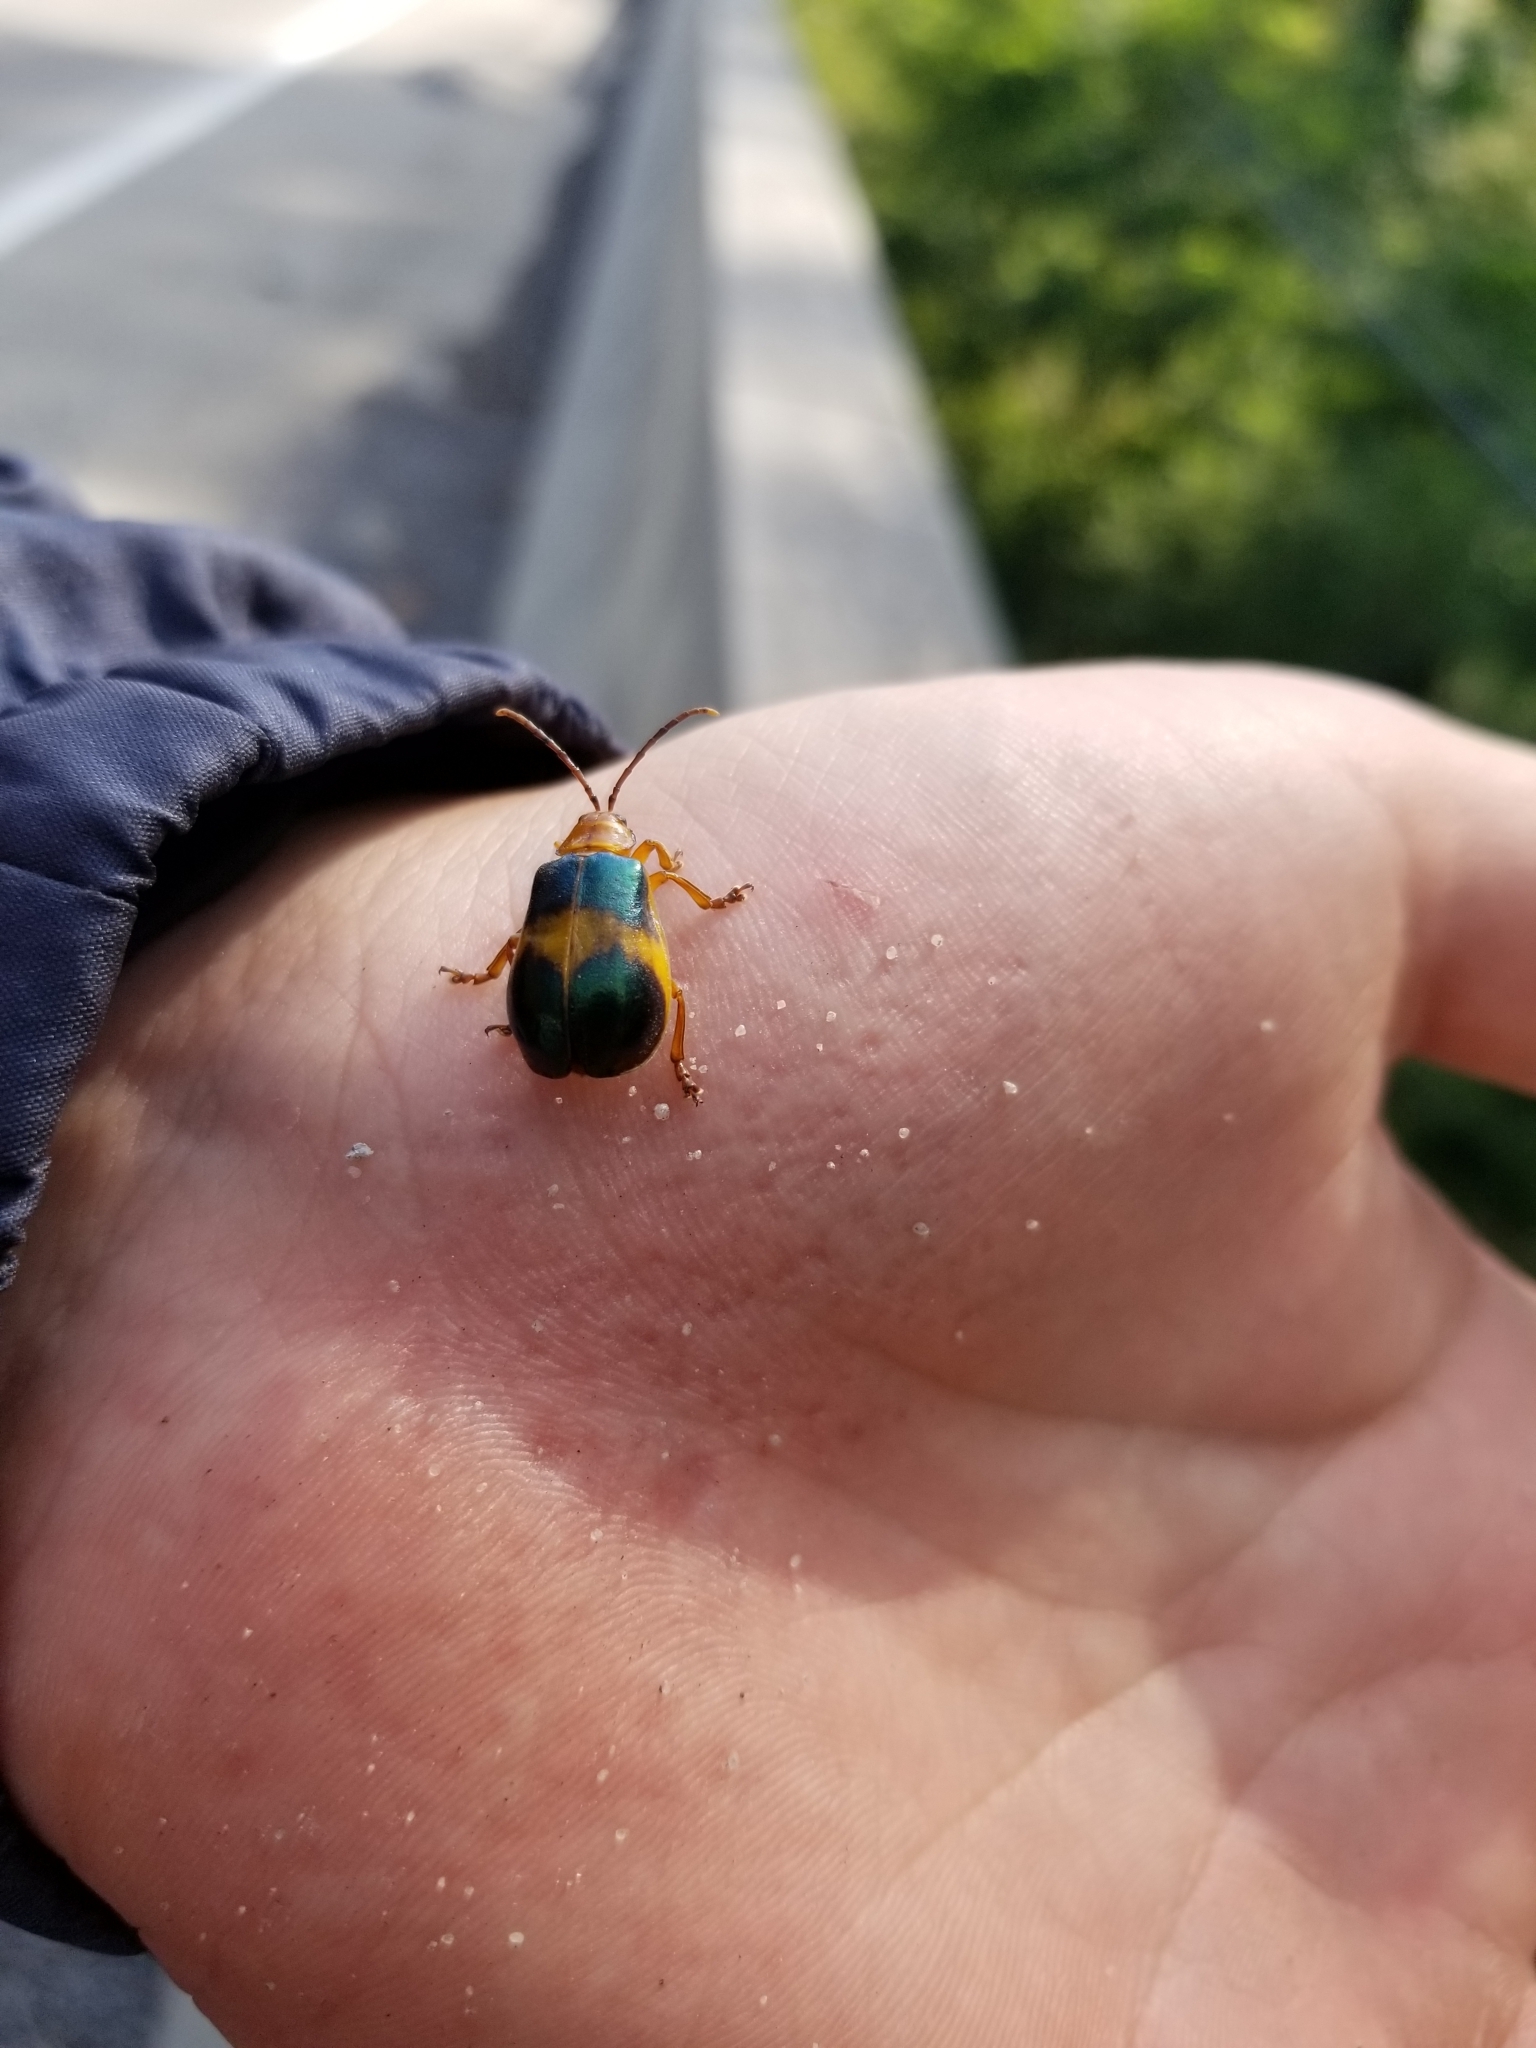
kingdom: Animalia
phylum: Arthropoda
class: Insecta
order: Coleoptera
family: Chrysomelidae
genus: Monocesta
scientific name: Monocesta coryli
